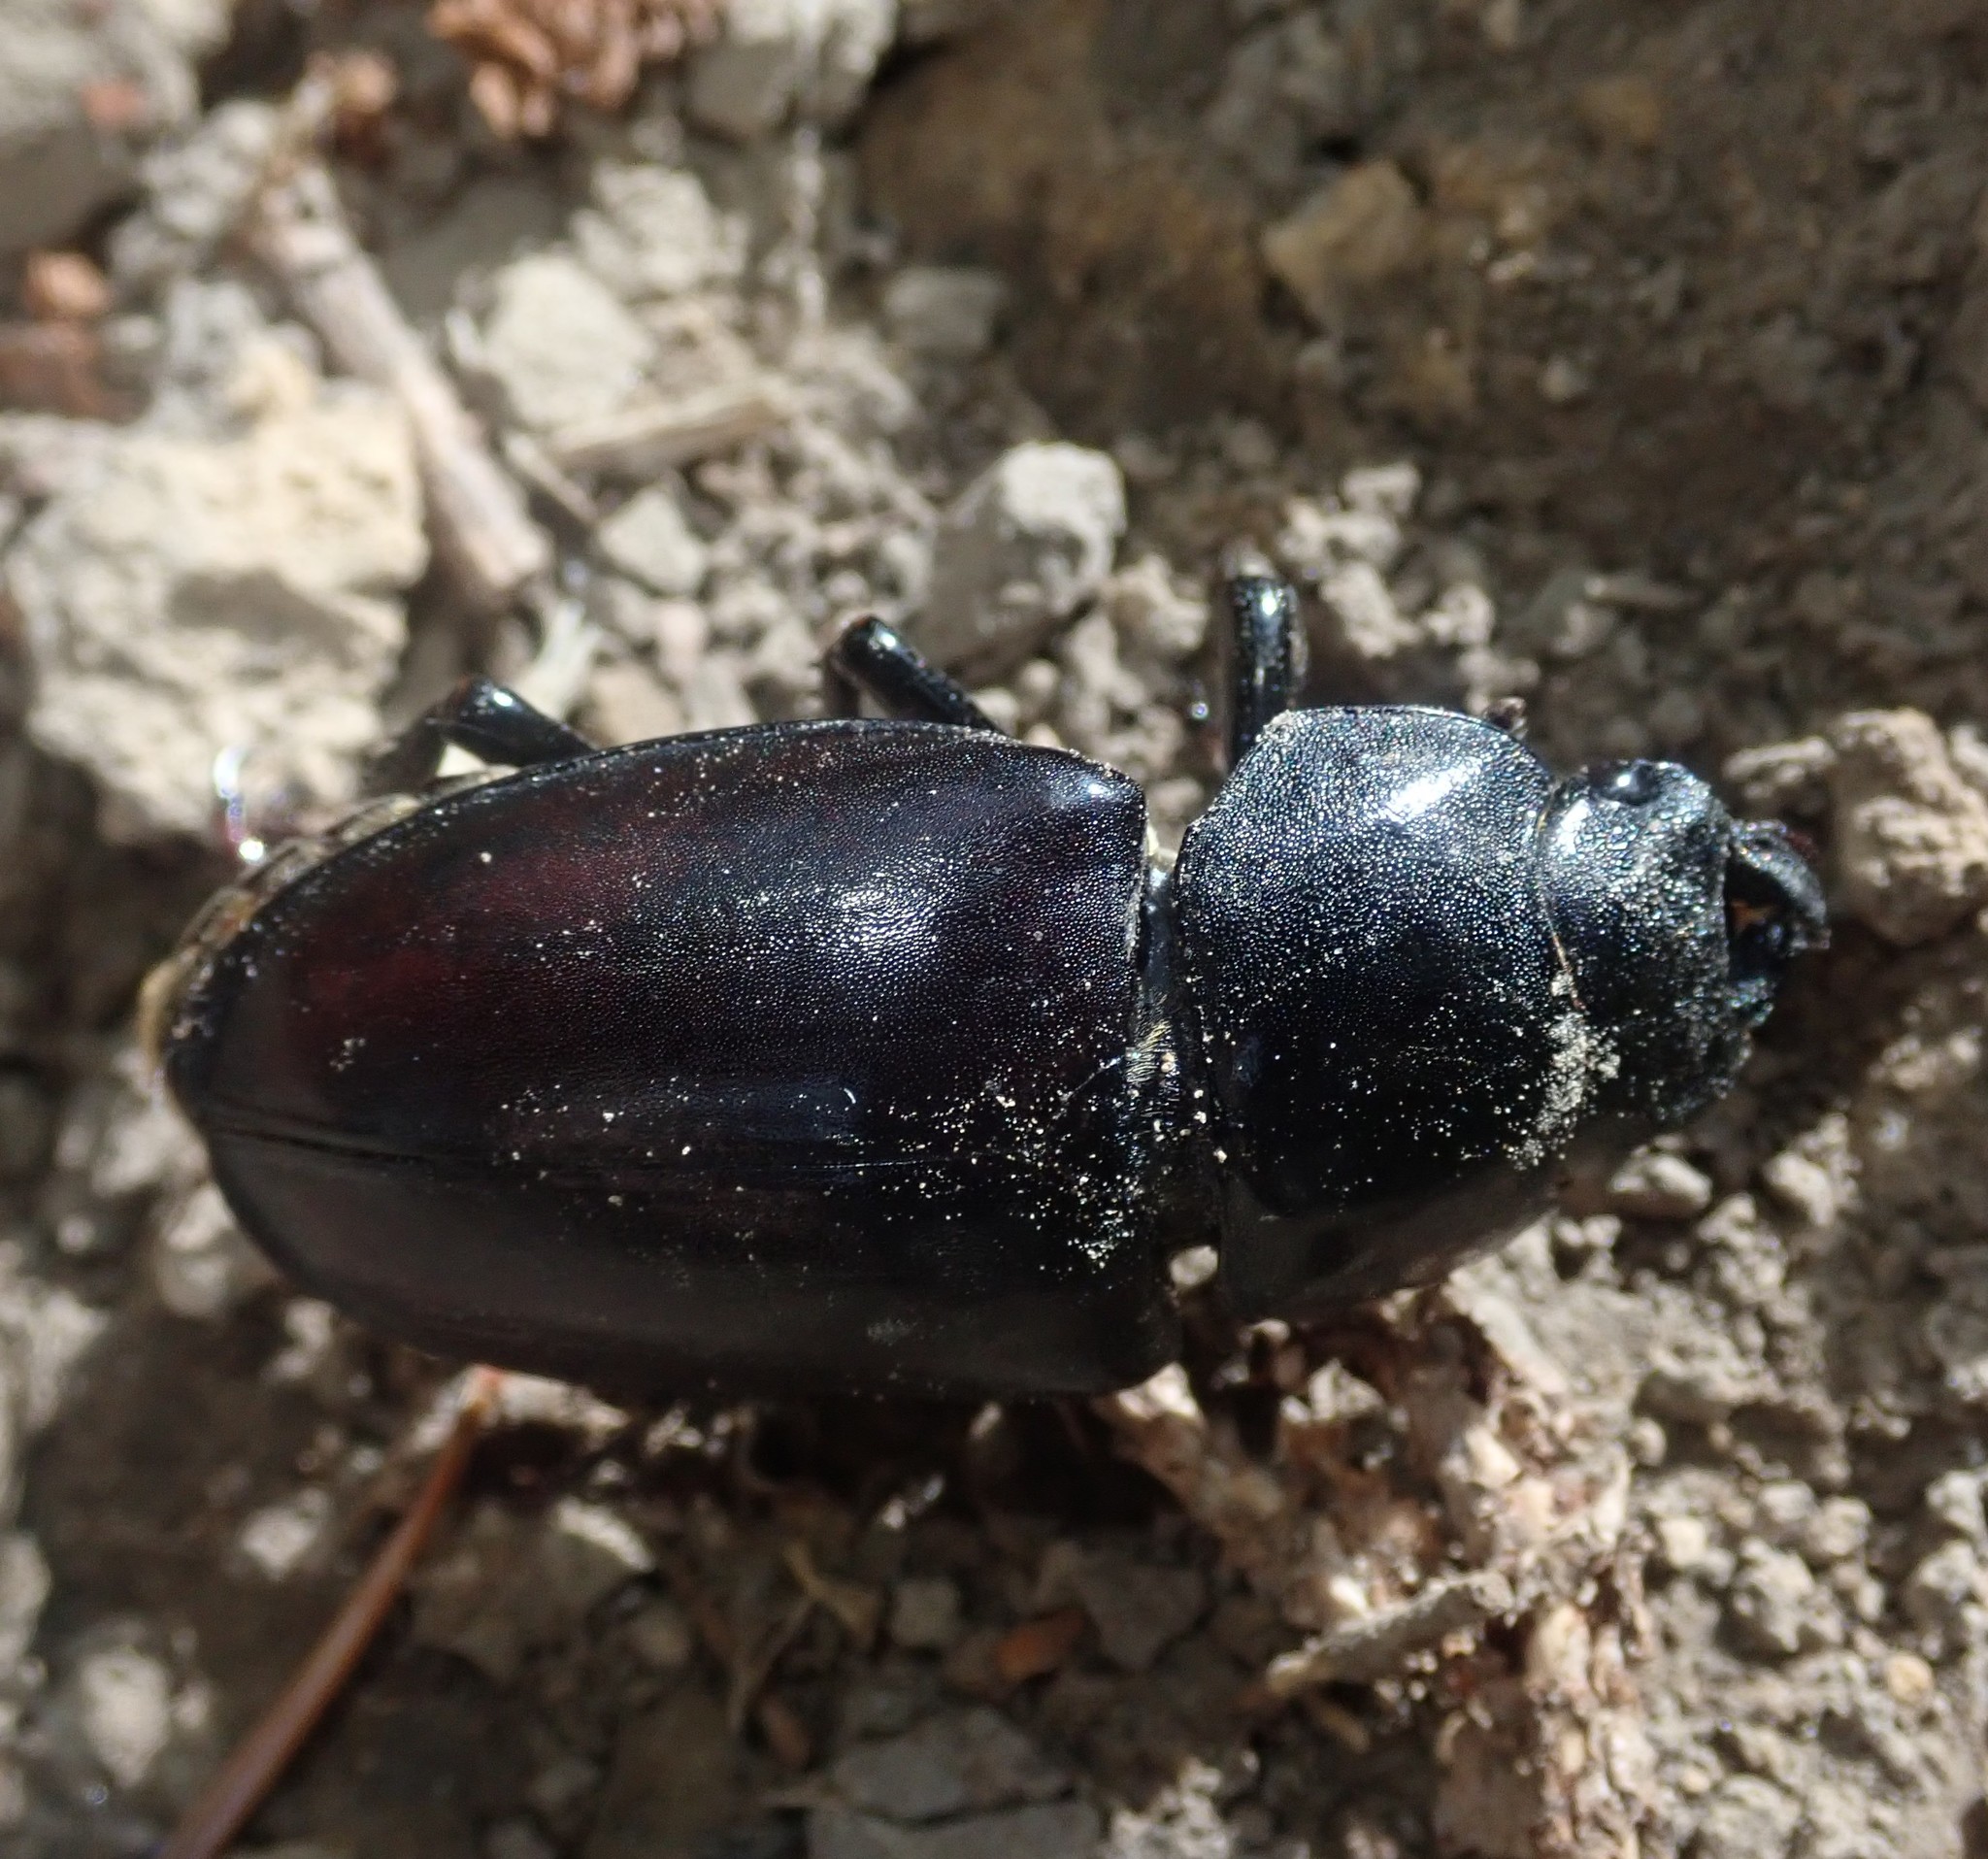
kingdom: Animalia
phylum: Arthropoda
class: Insecta
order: Coleoptera
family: Lucanidae
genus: Lucanus
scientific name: Lucanus cervus
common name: Stag beetle
